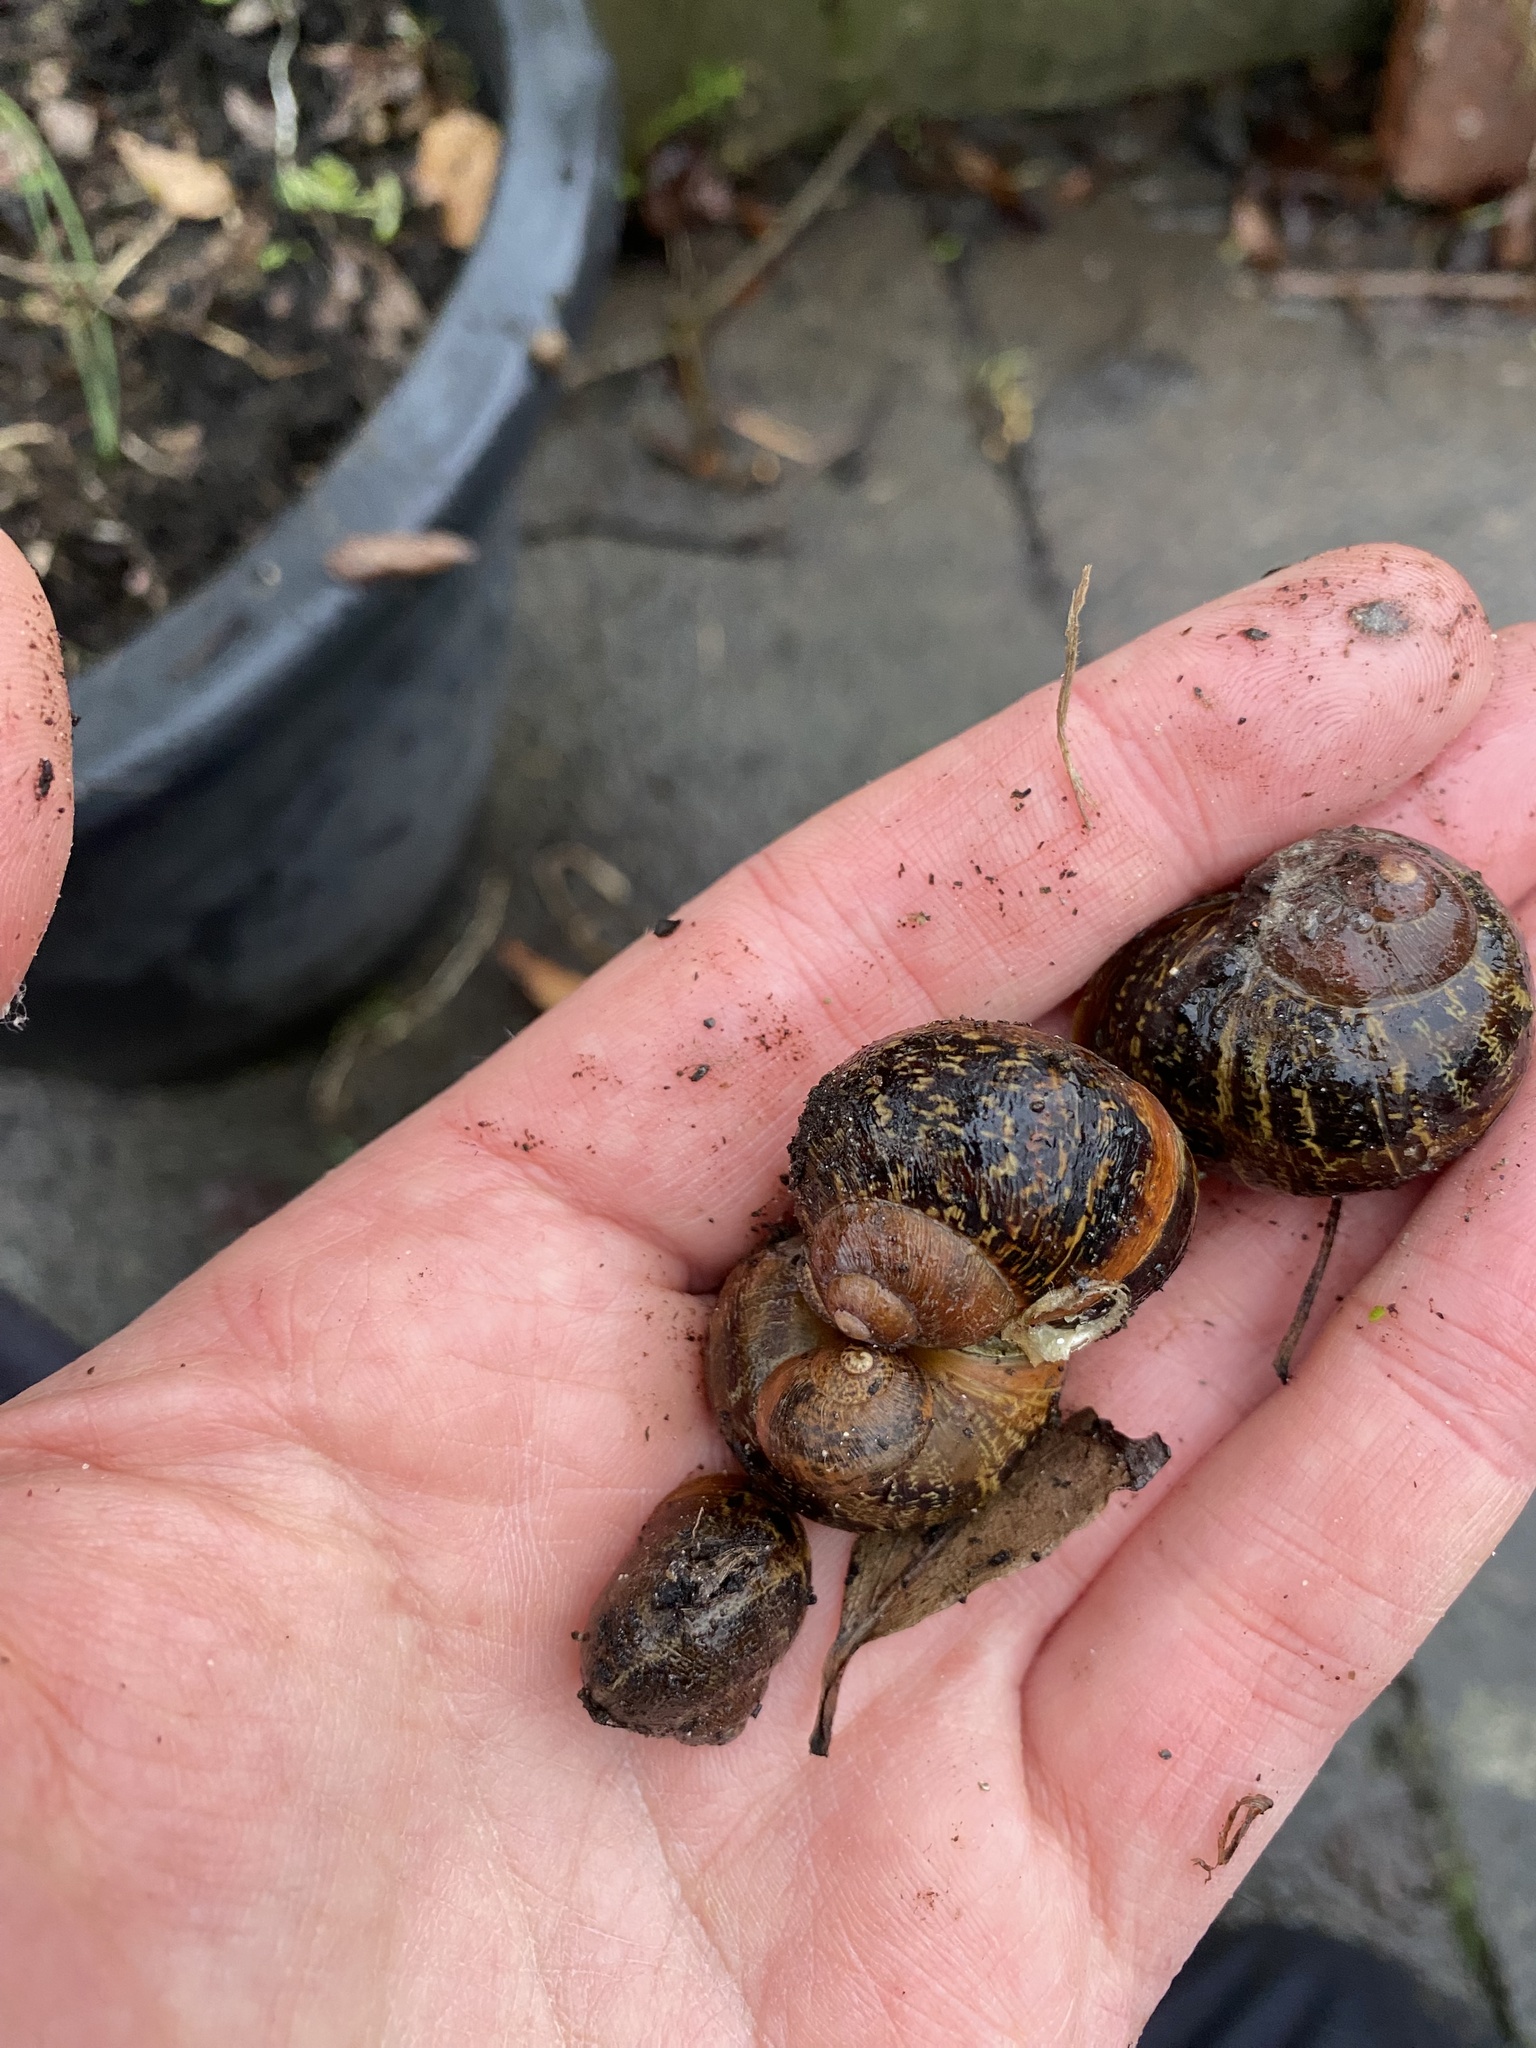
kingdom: Animalia
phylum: Mollusca
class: Gastropoda
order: Stylommatophora
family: Helicidae
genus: Cornu
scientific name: Cornu aspersum
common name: Brown garden snail
